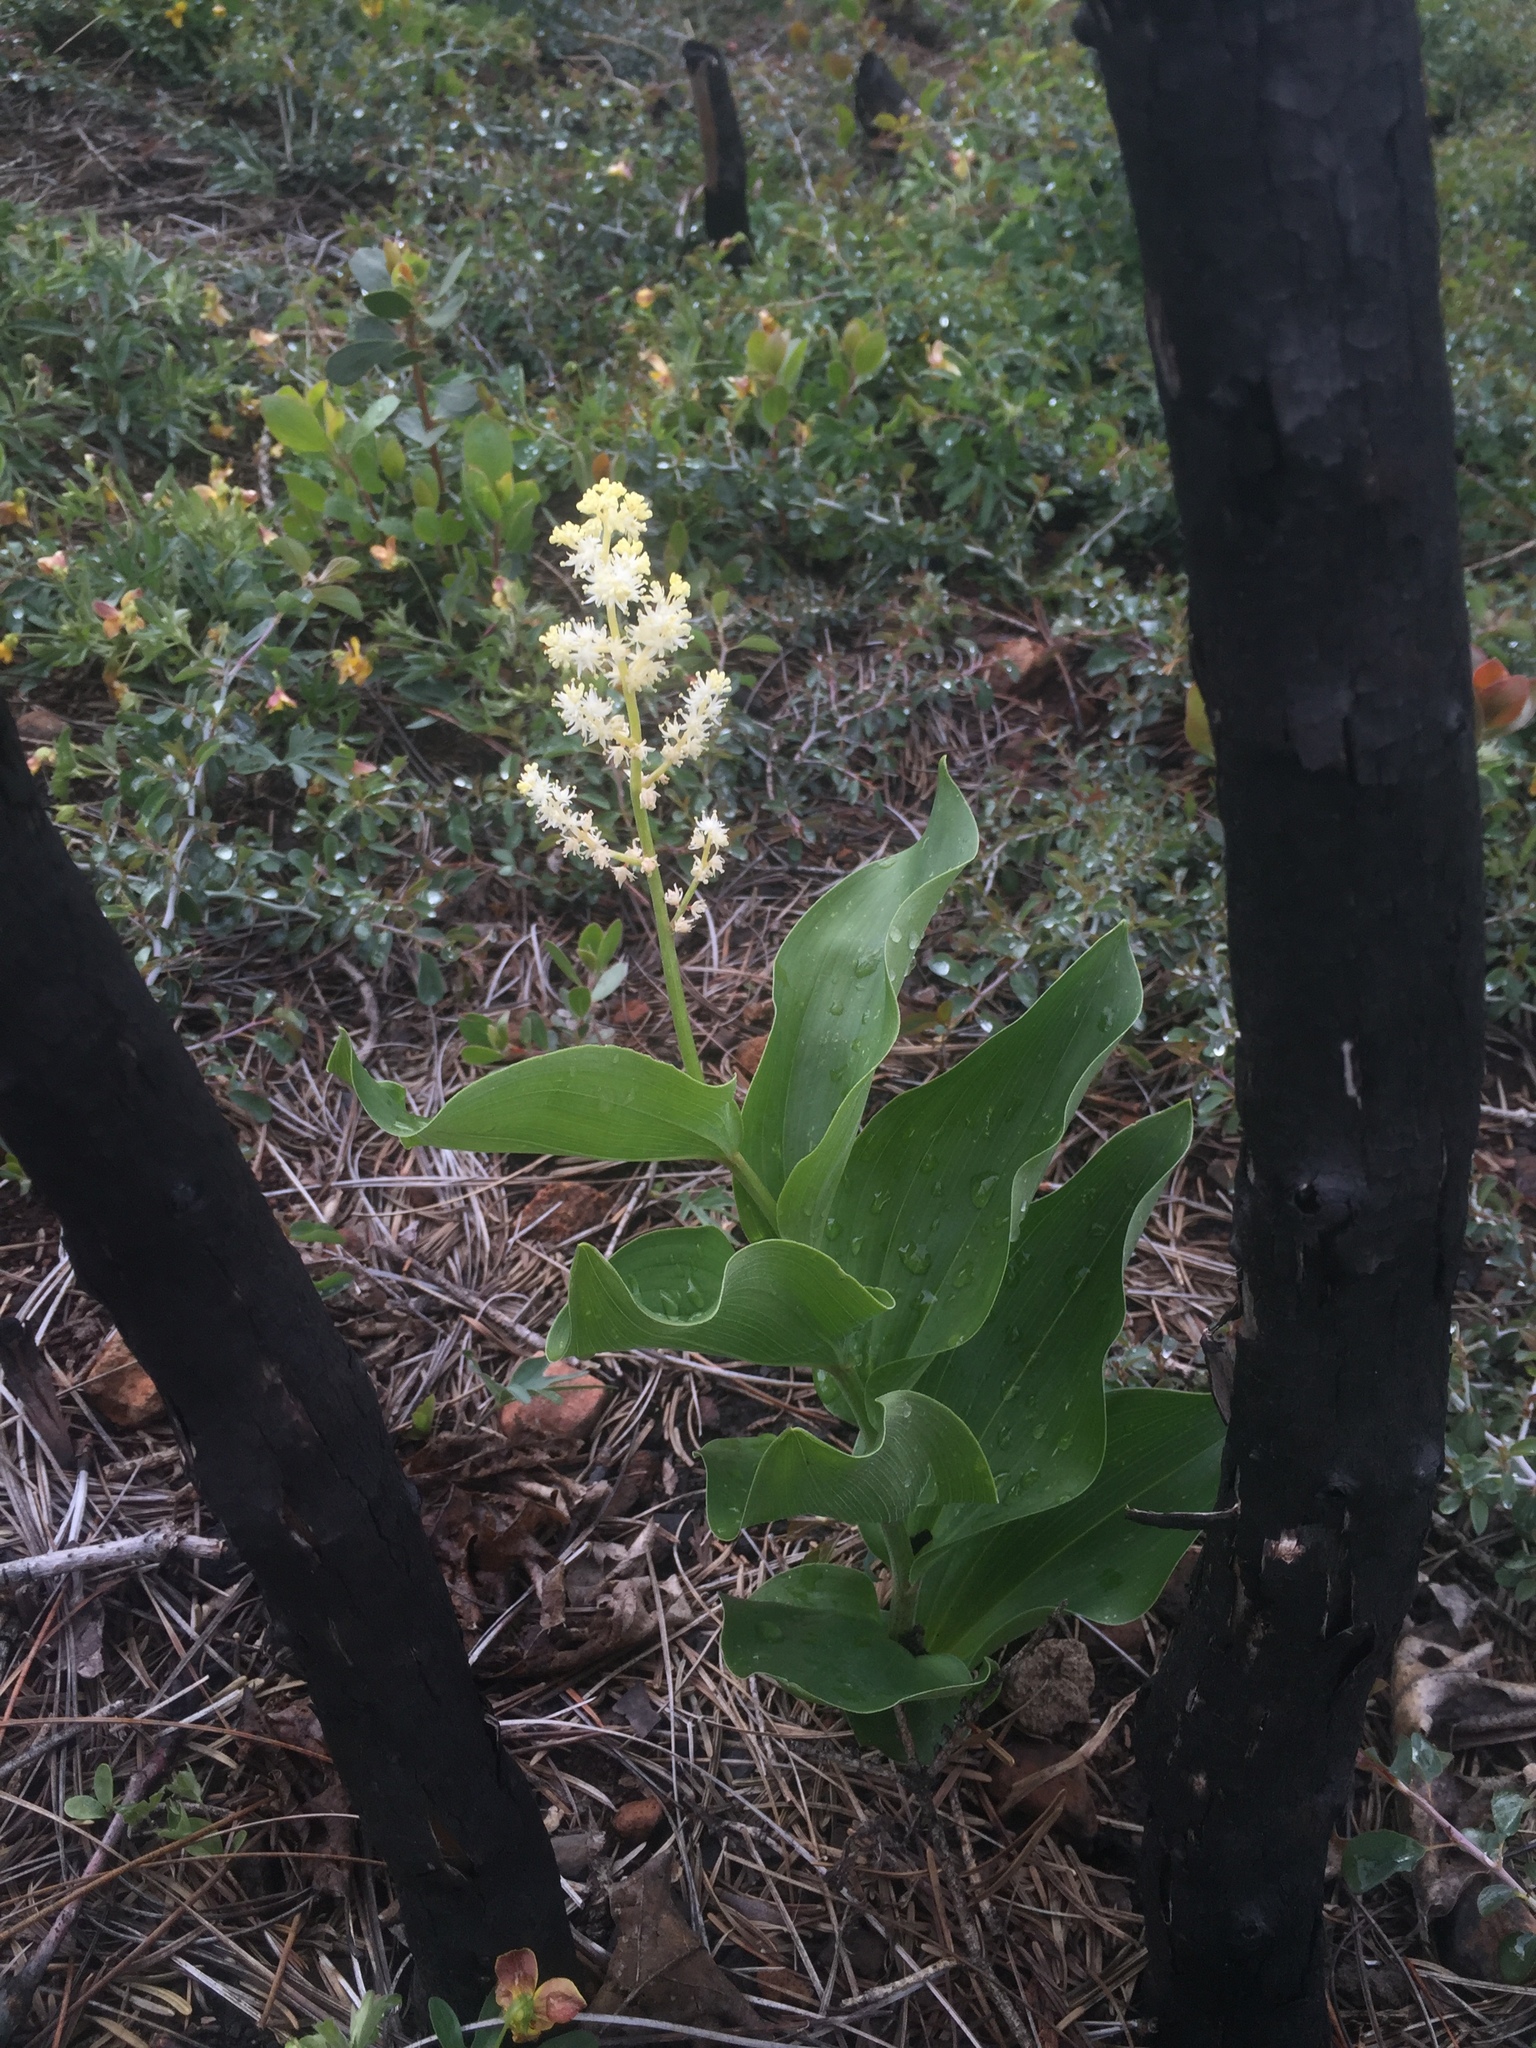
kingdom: Plantae
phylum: Tracheophyta
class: Liliopsida
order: Asparagales
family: Asparagaceae
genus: Maianthemum
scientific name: Maianthemum racemosum
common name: False spikenard
